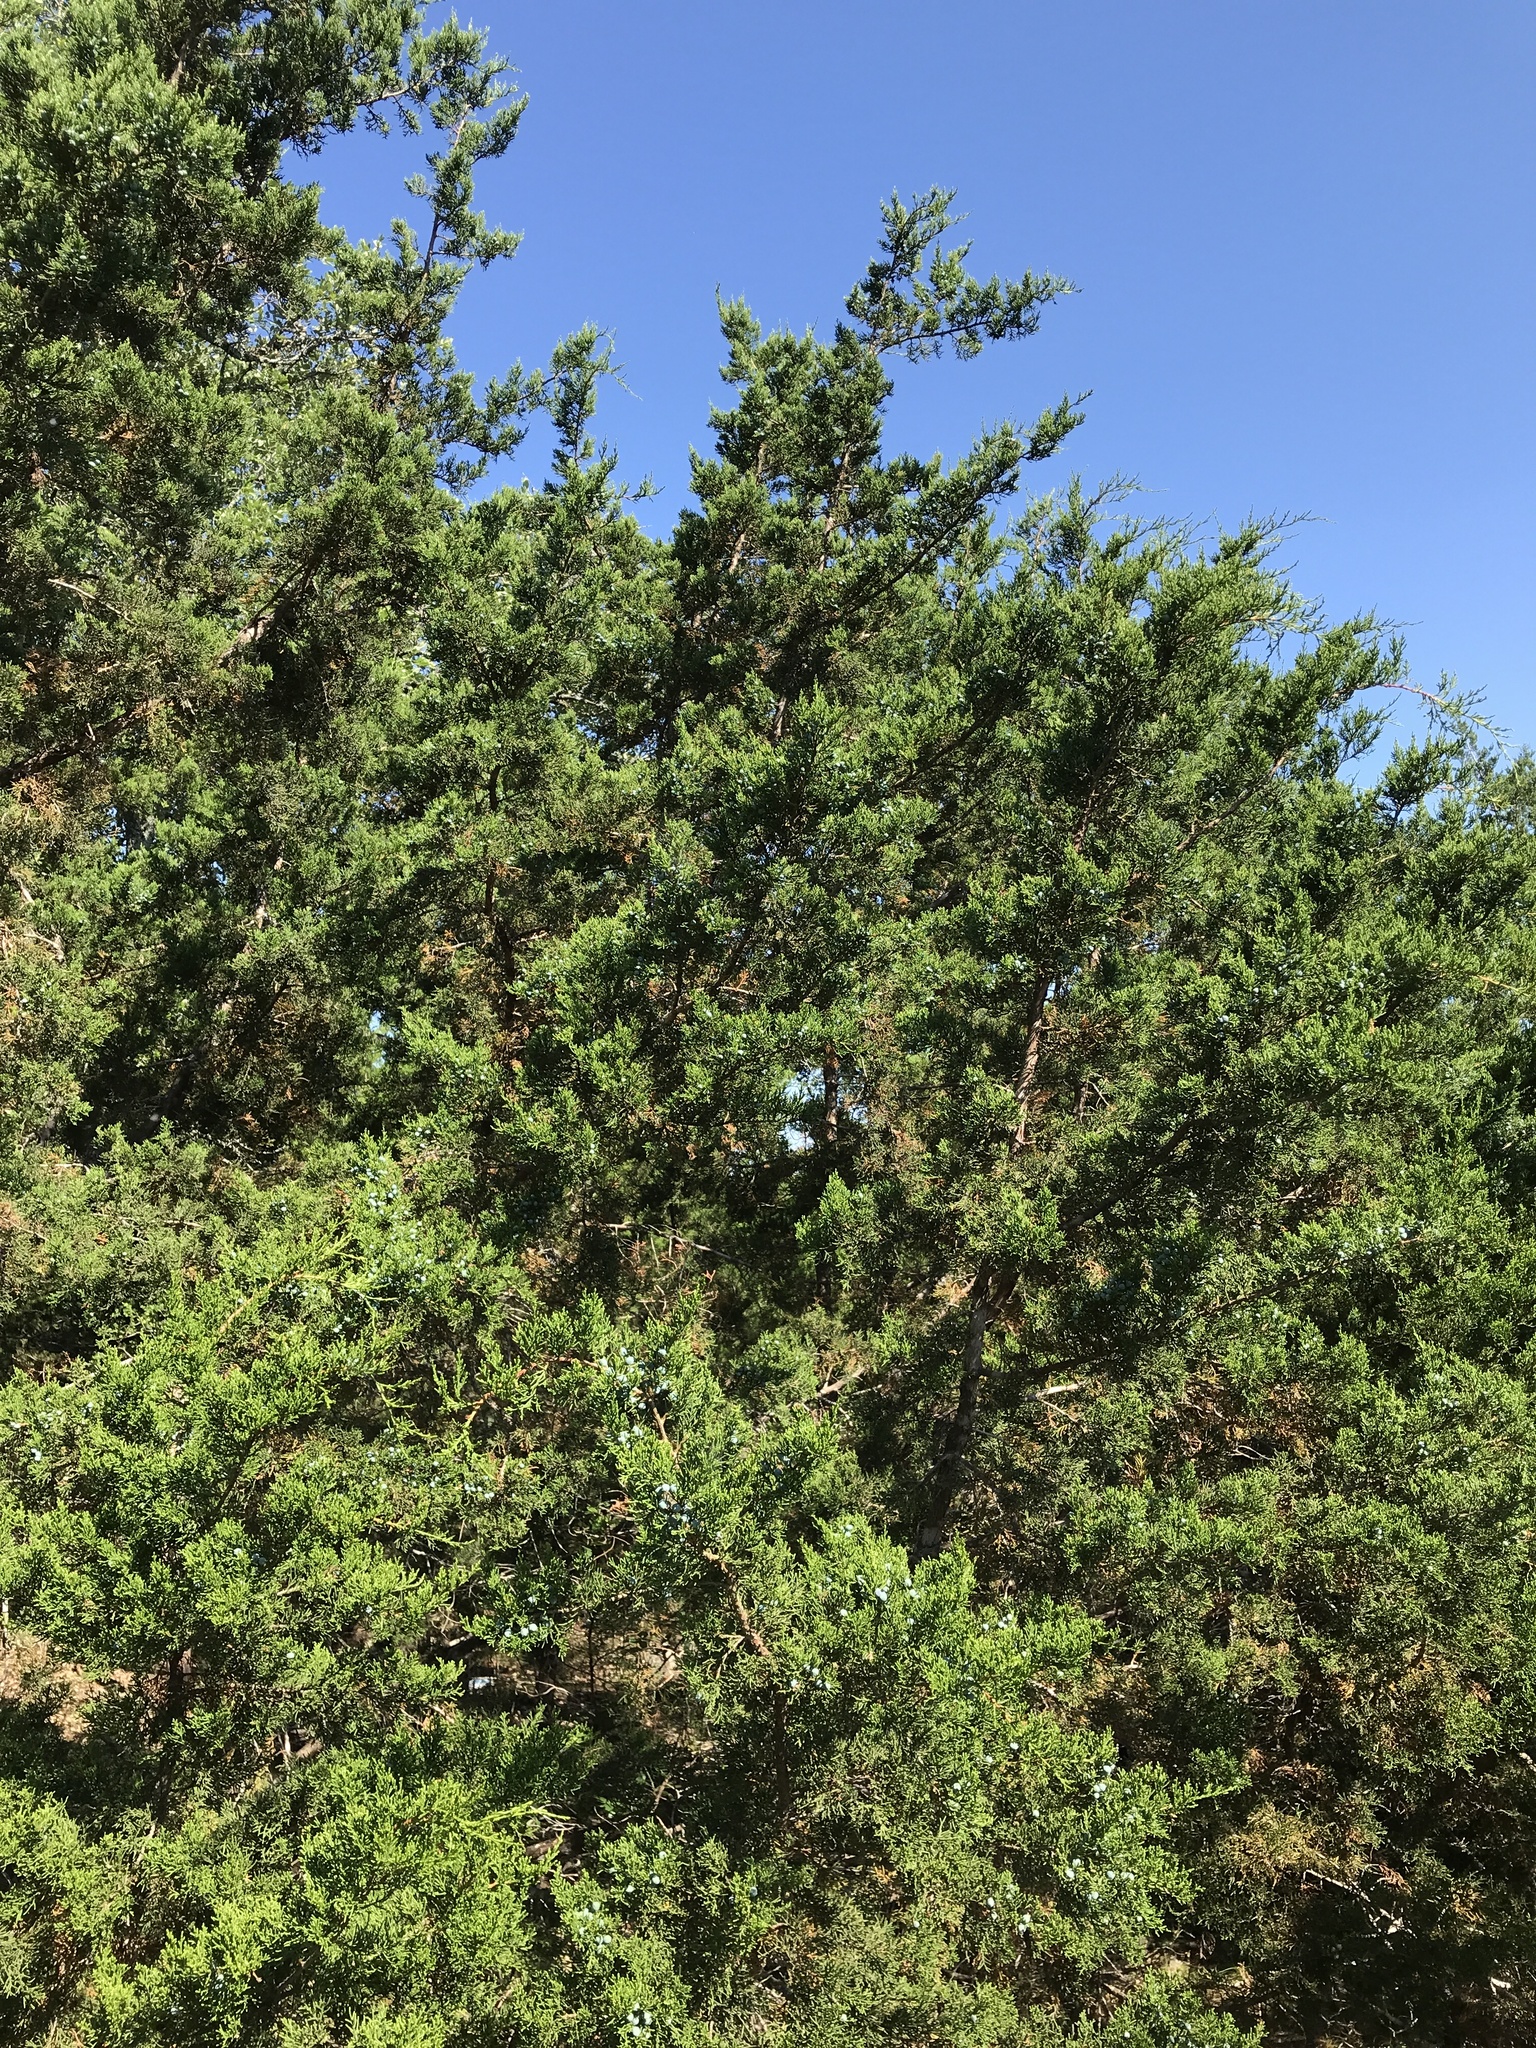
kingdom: Plantae
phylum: Tracheophyta
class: Pinopsida
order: Pinales
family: Cupressaceae
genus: Juniperus
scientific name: Juniperus ashei
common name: Mexican juniper
